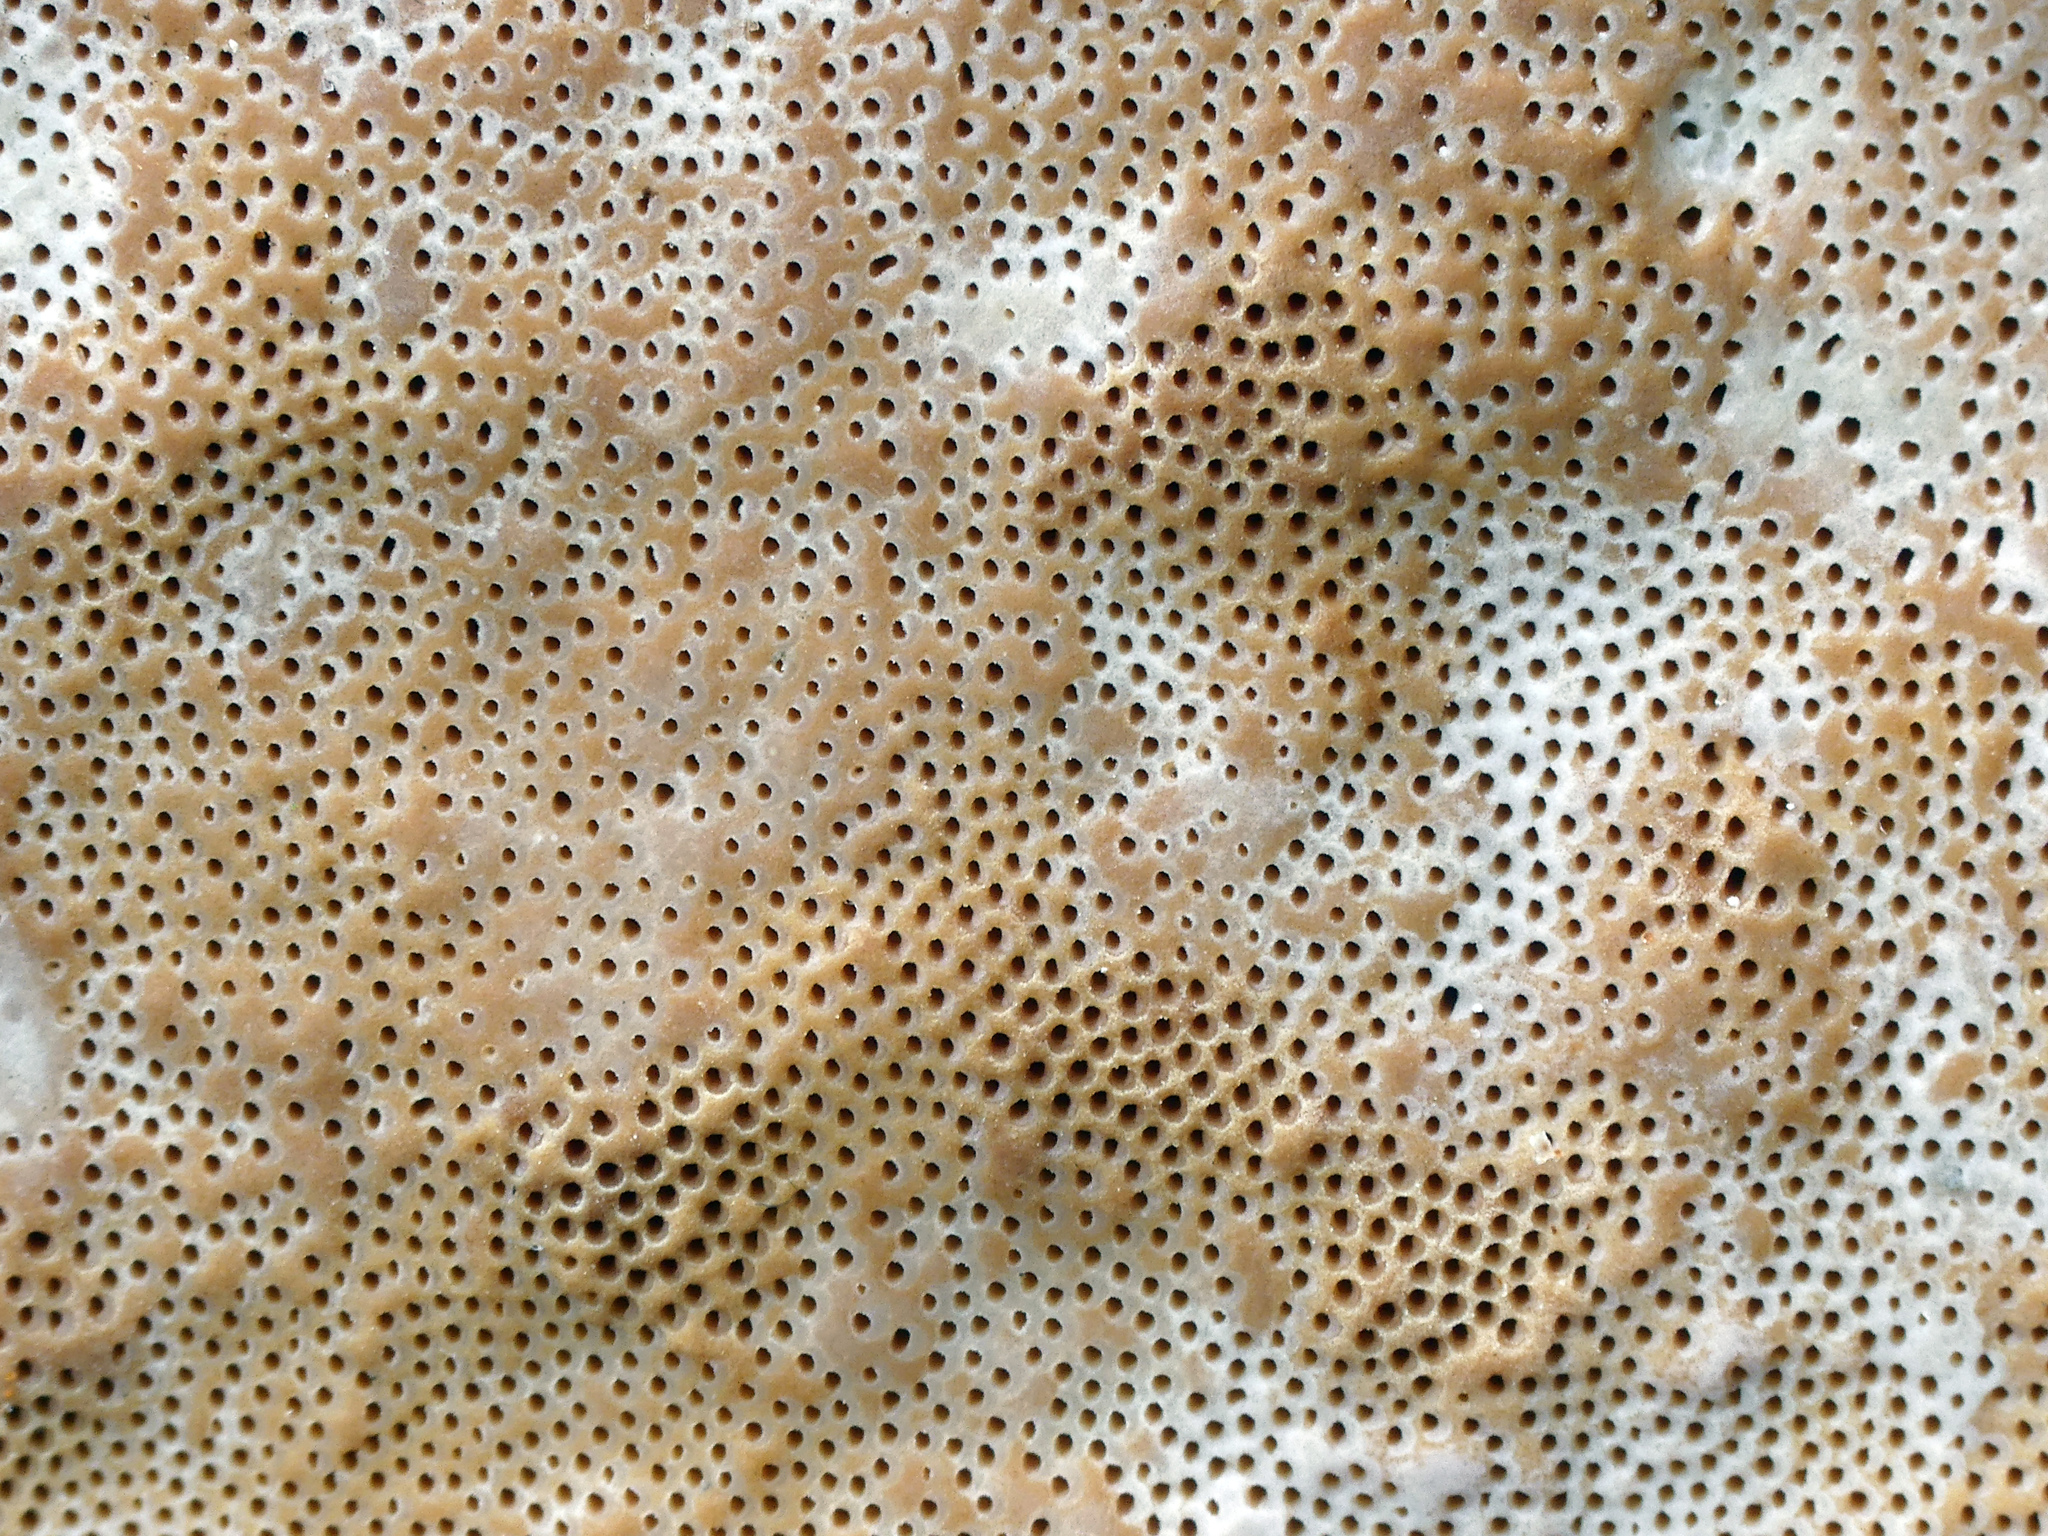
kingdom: Fungi
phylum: Basidiomycota
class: Agaricomycetes
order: Polyporales
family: Fomitopsidaceae
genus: Fomitopsis
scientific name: Fomitopsis pinicola
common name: Red-belted bracket
